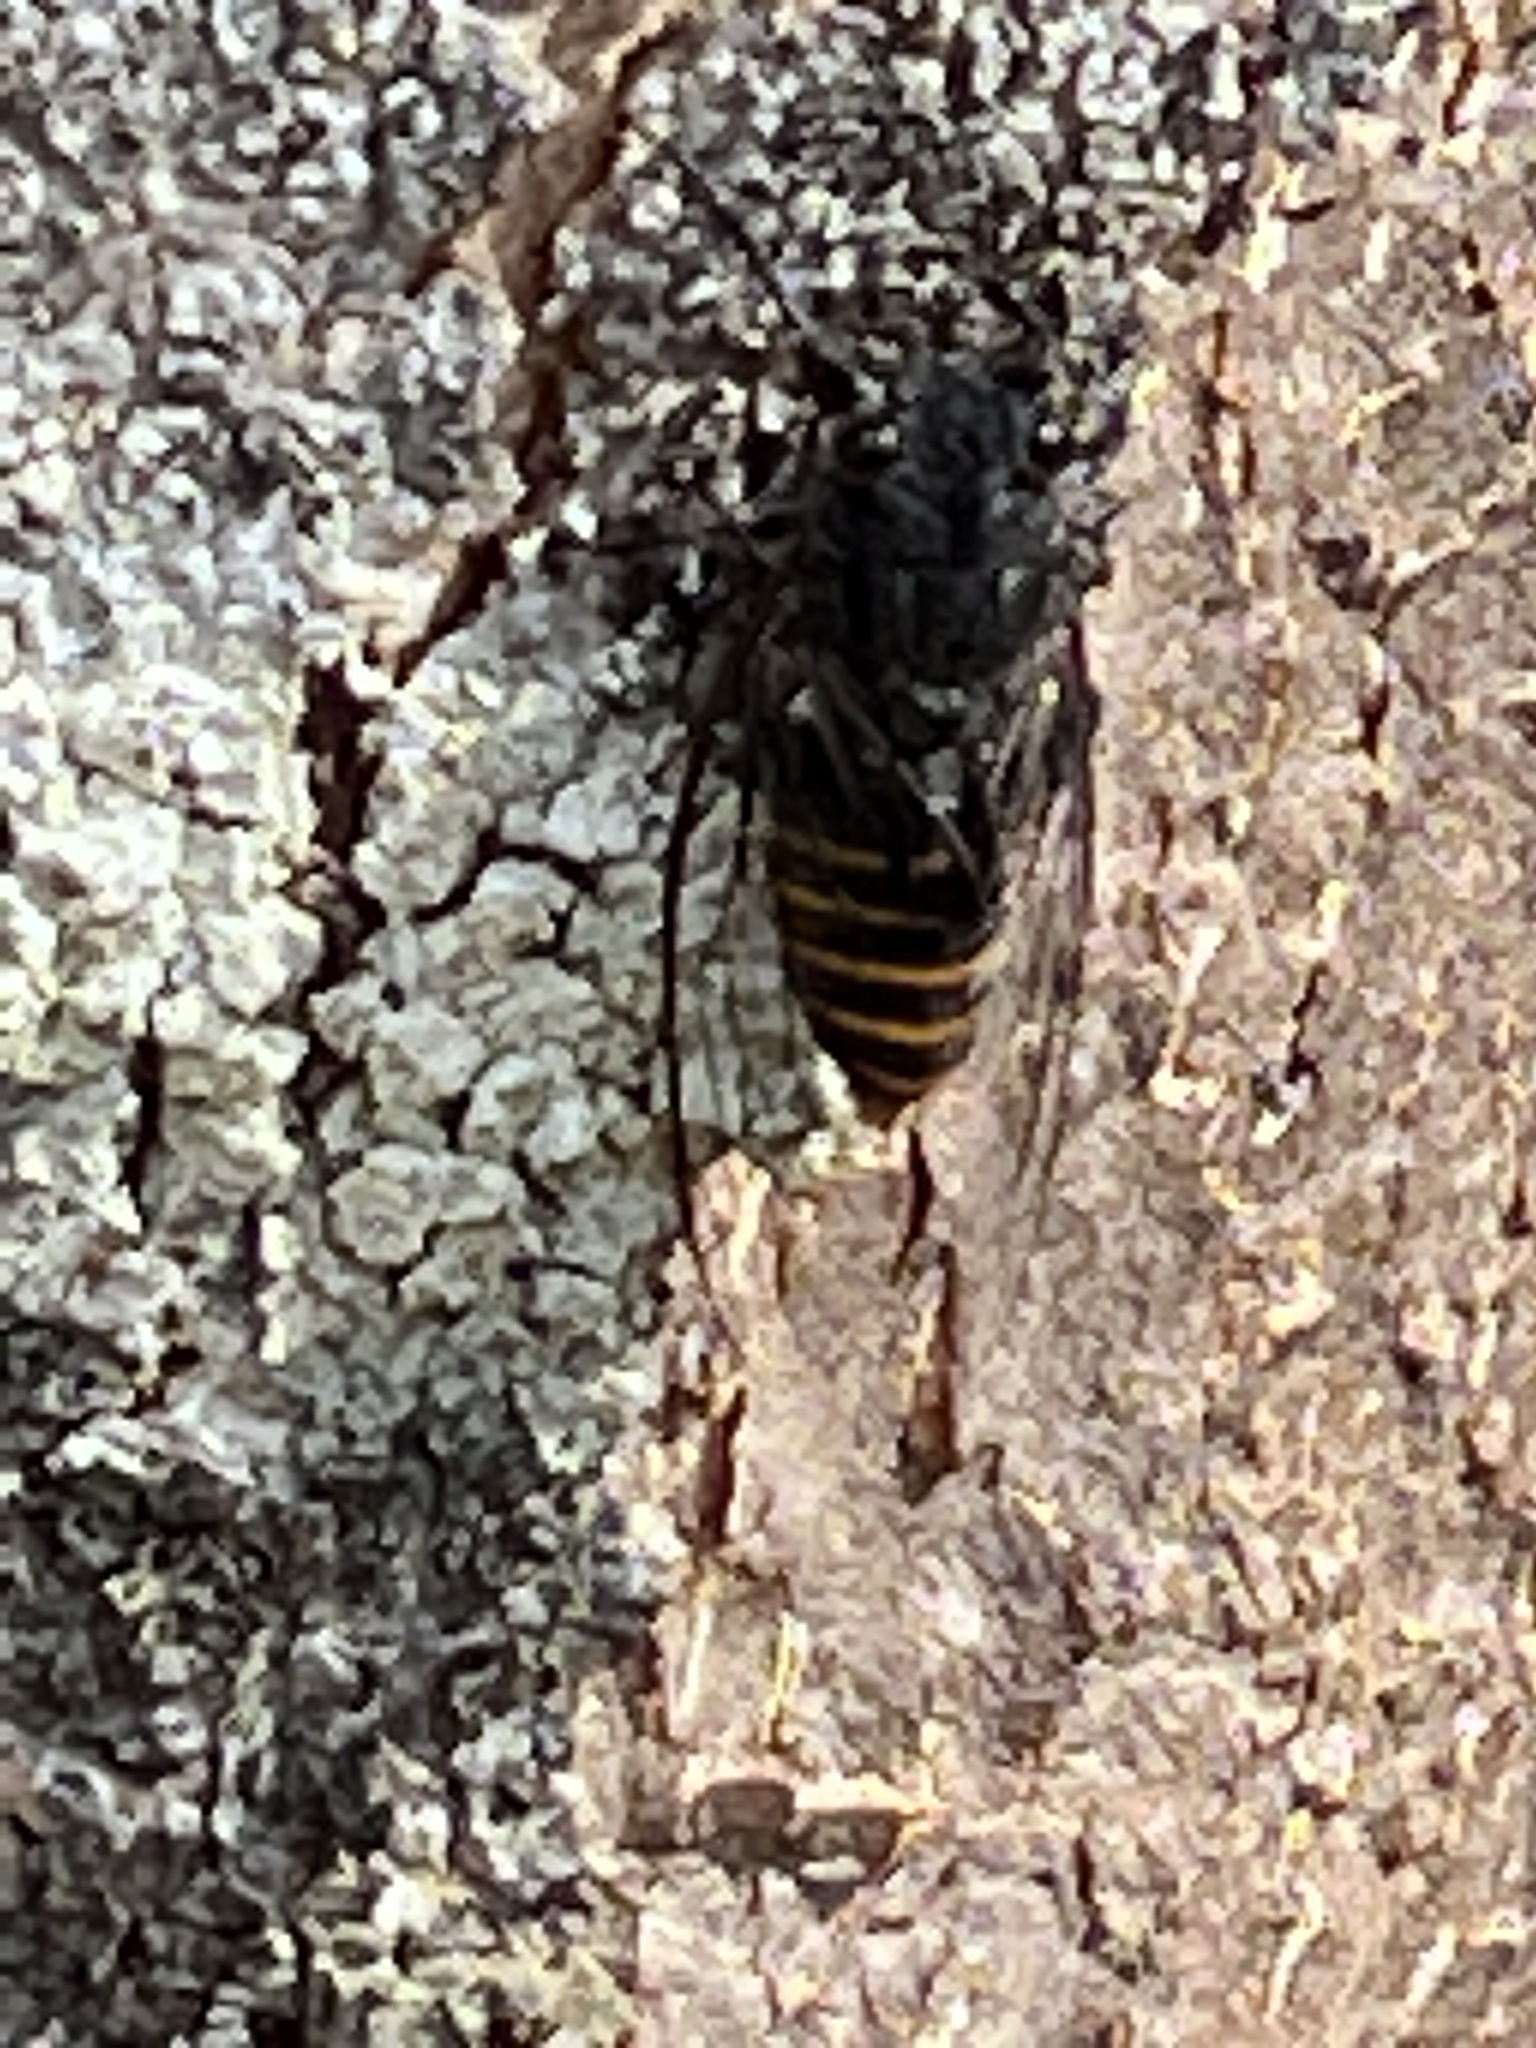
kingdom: Animalia
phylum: Arthropoda
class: Insecta
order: Hemiptera
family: Cicadidae
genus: Pauropsalta
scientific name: Pauropsalta mneme
